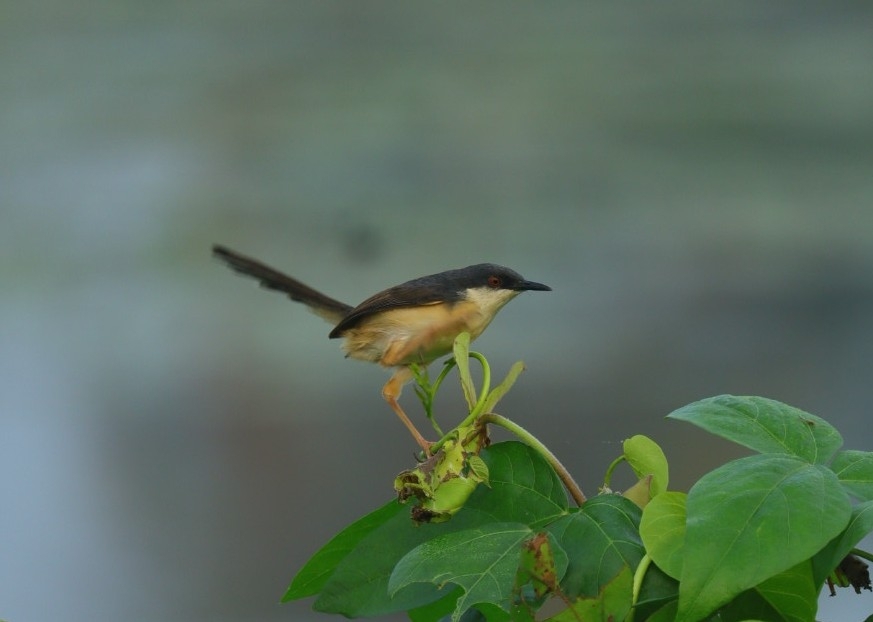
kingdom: Animalia
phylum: Chordata
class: Aves
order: Passeriformes
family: Cisticolidae
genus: Prinia
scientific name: Prinia socialis
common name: Ashy prinia
